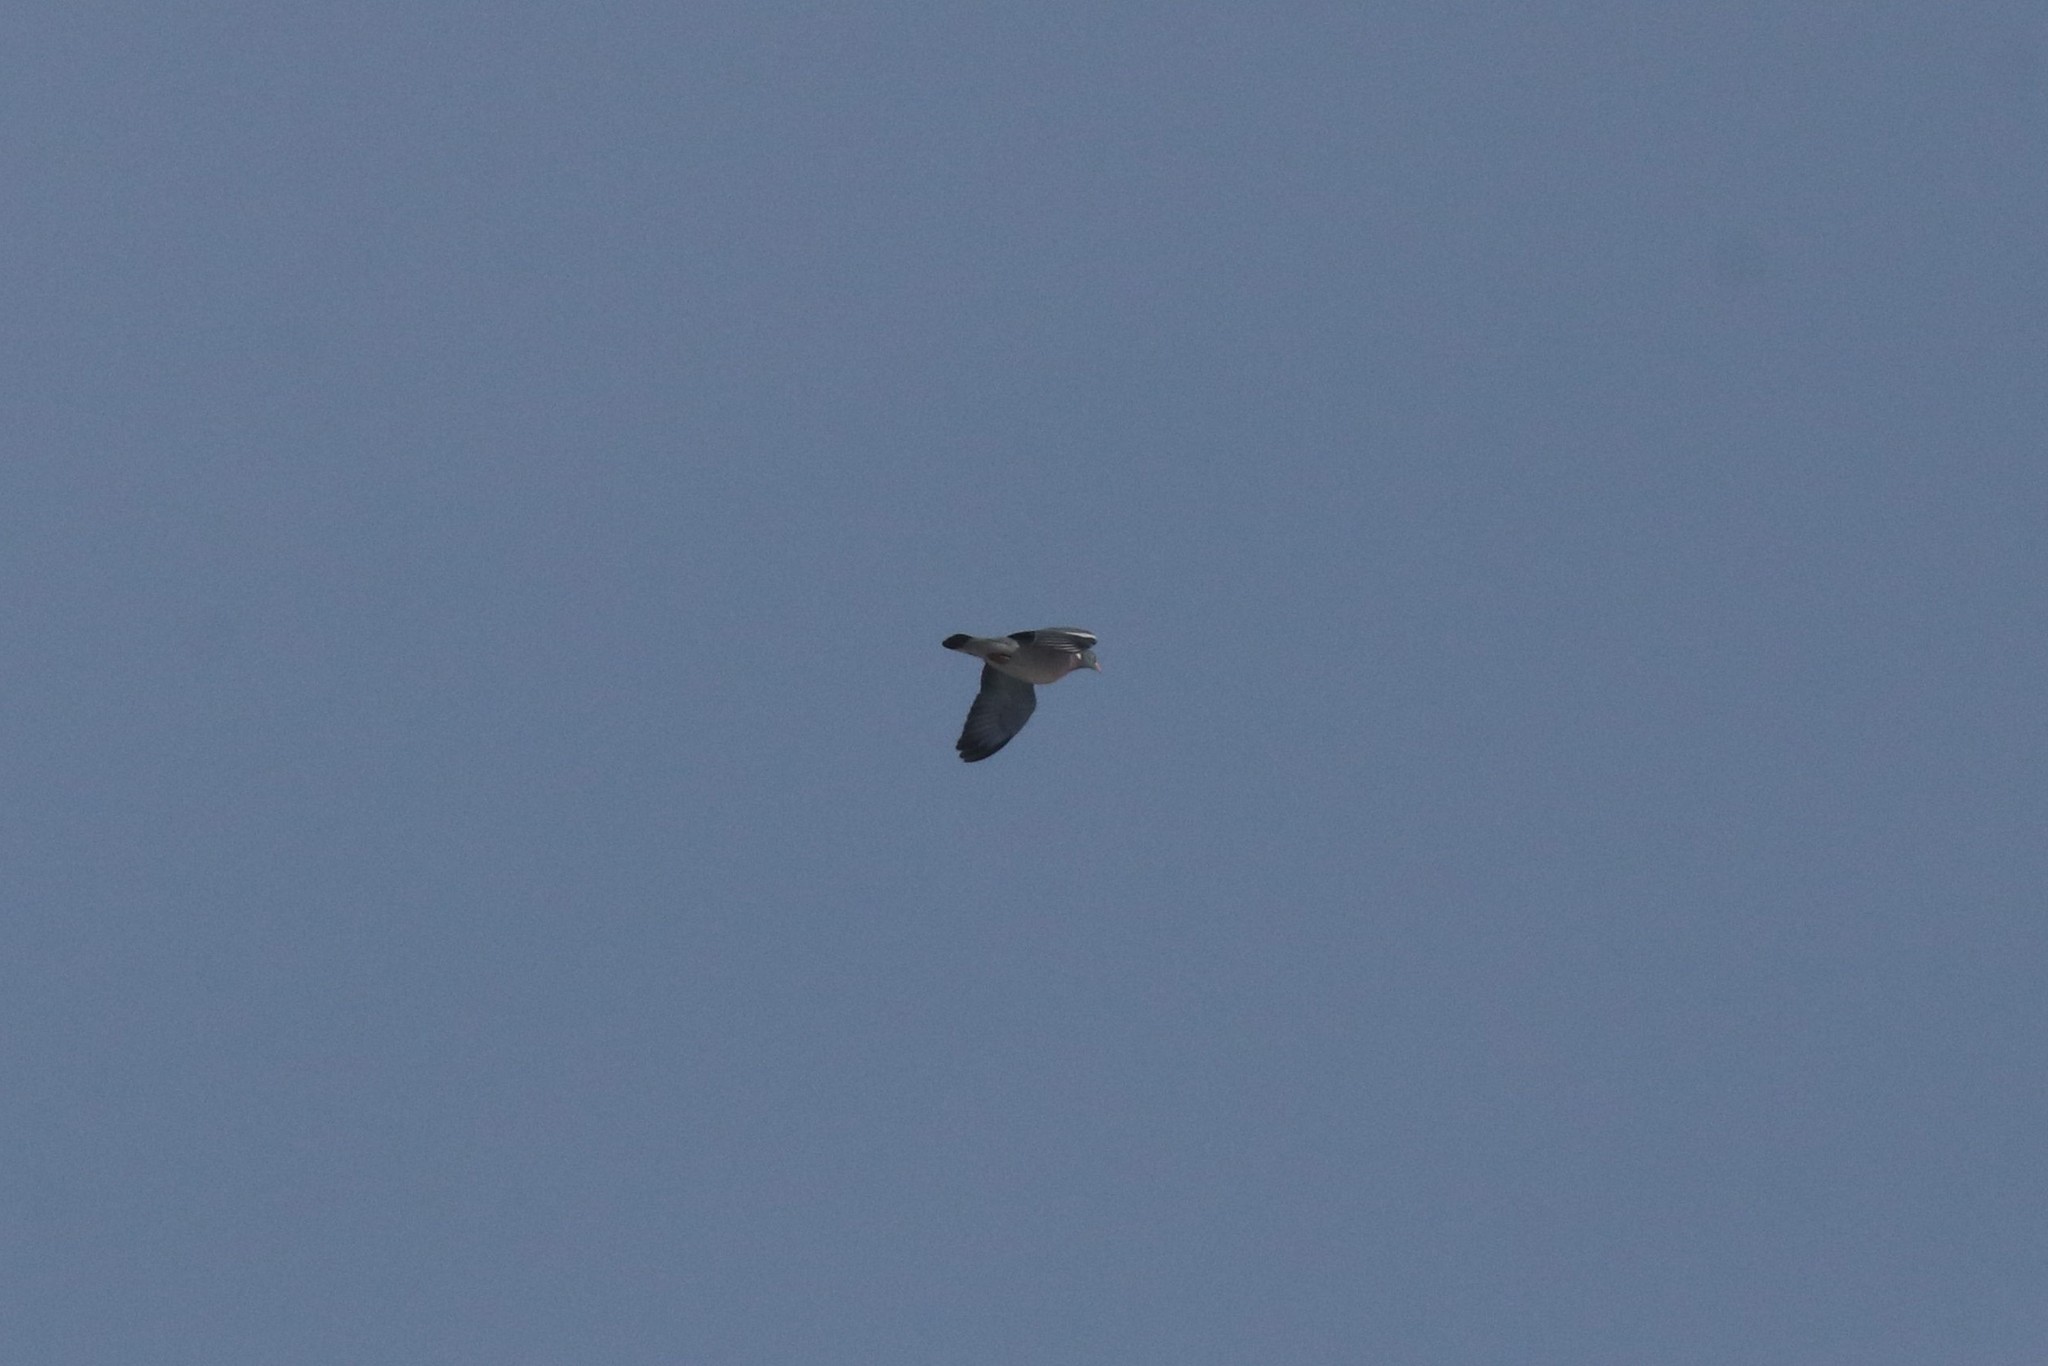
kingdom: Animalia
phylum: Chordata
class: Aves
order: Columbiformes
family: Columbidae
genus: Columba
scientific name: Columba palumbus
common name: Common wood pigeon
